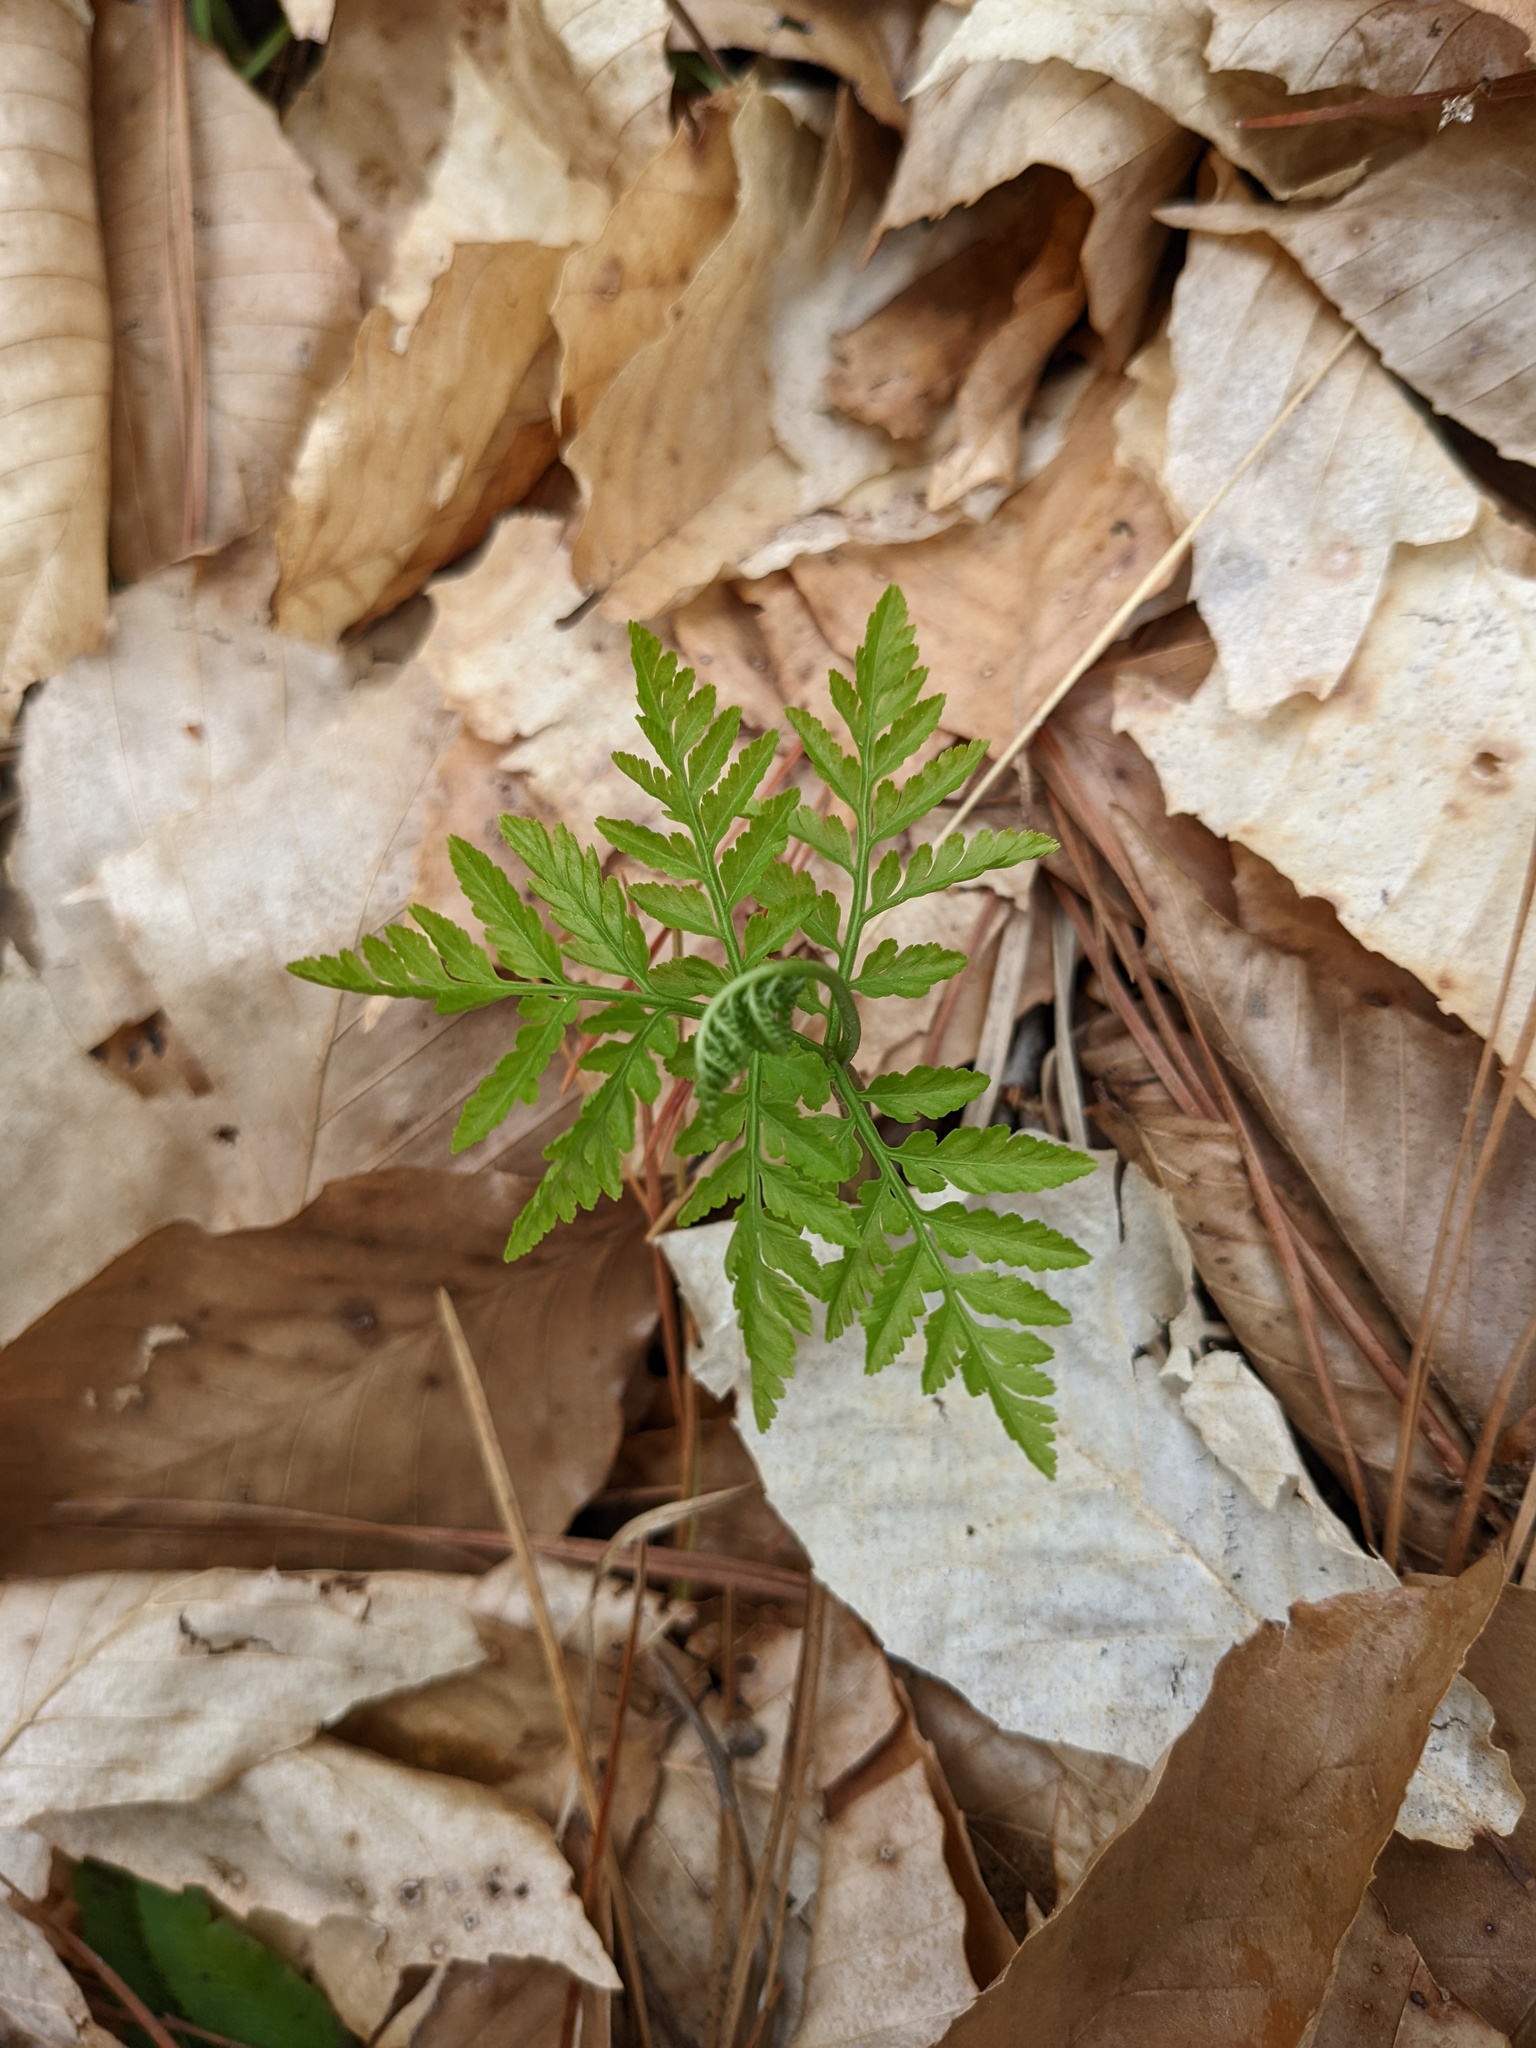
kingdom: Plantae
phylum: Tracheophyta
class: Polypodiopsida
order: Ophioglossales
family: Ophioglossaceae
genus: Botrypus
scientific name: Botrypus virginianus
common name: Common grapefern
